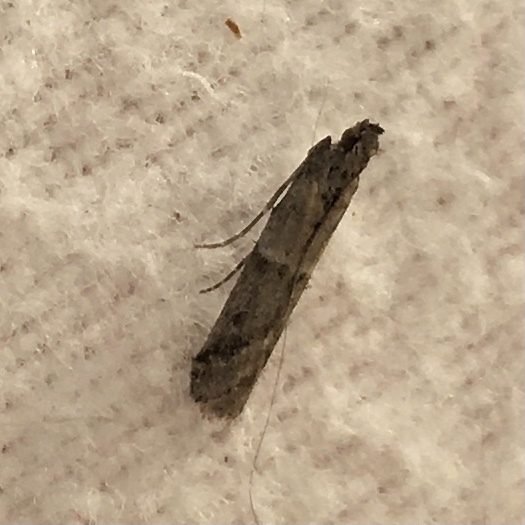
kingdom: Animalia
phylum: Arthropoda
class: Insecta
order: Lepidoptera
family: Pyralidae
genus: Ephestiodes
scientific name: Ephestiodes gilvescentella
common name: Moth
